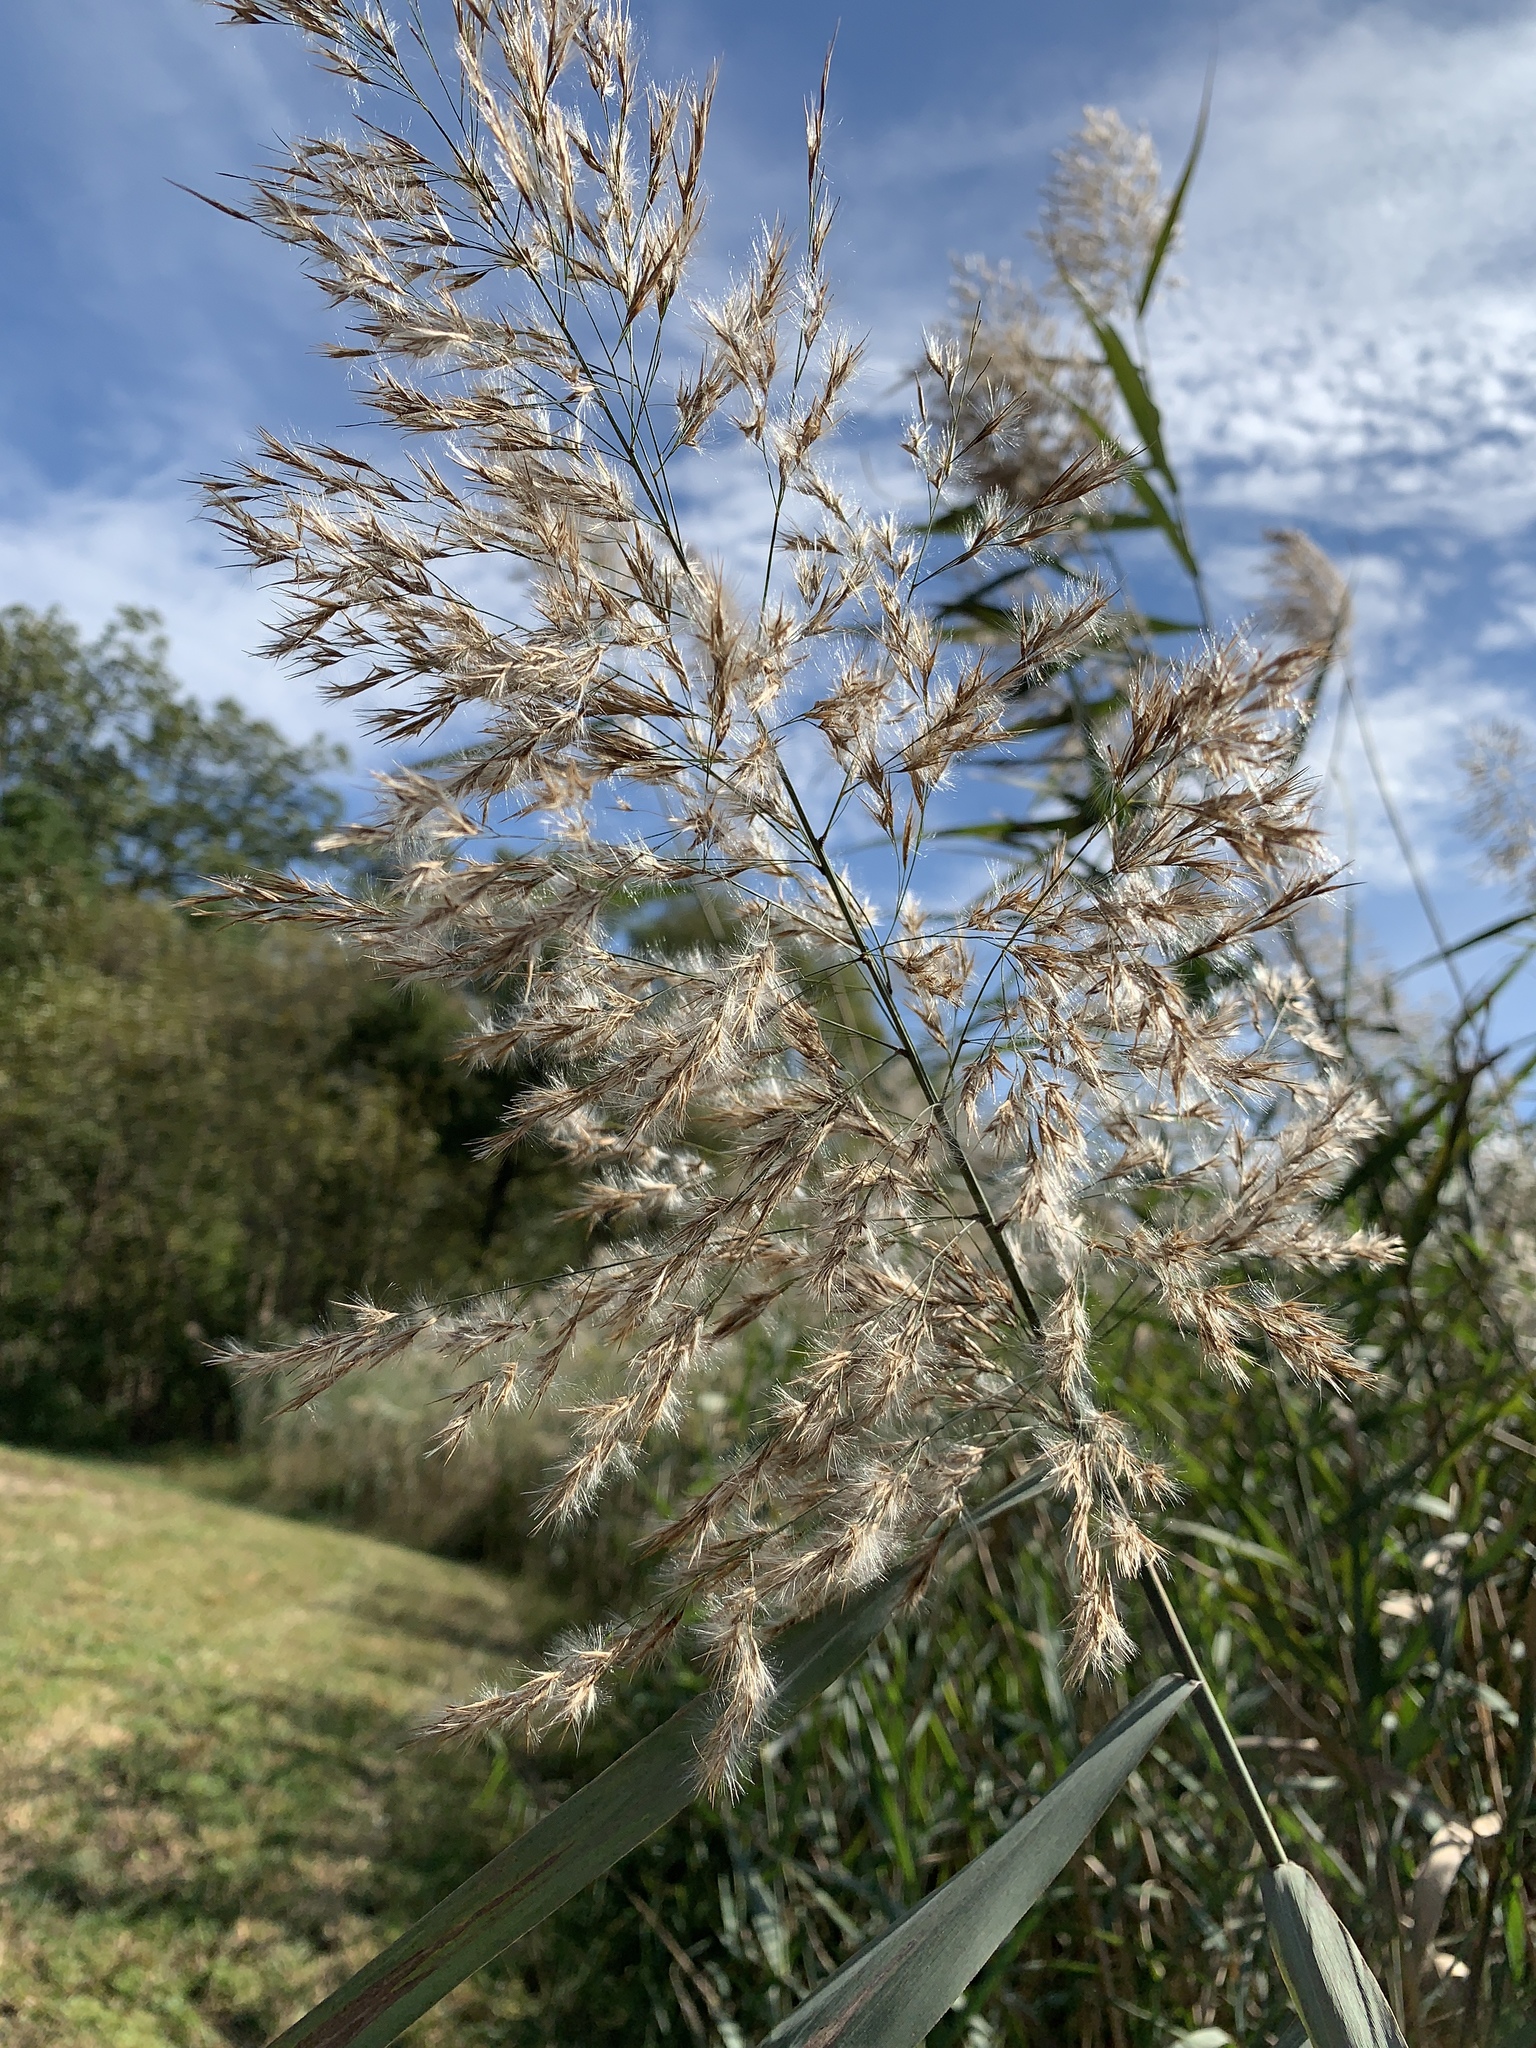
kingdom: Plantae
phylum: Tracheophyta
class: Liliopsida
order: Poales
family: Poaceae
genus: Phragmites
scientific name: Phragmites australis
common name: Common reed
